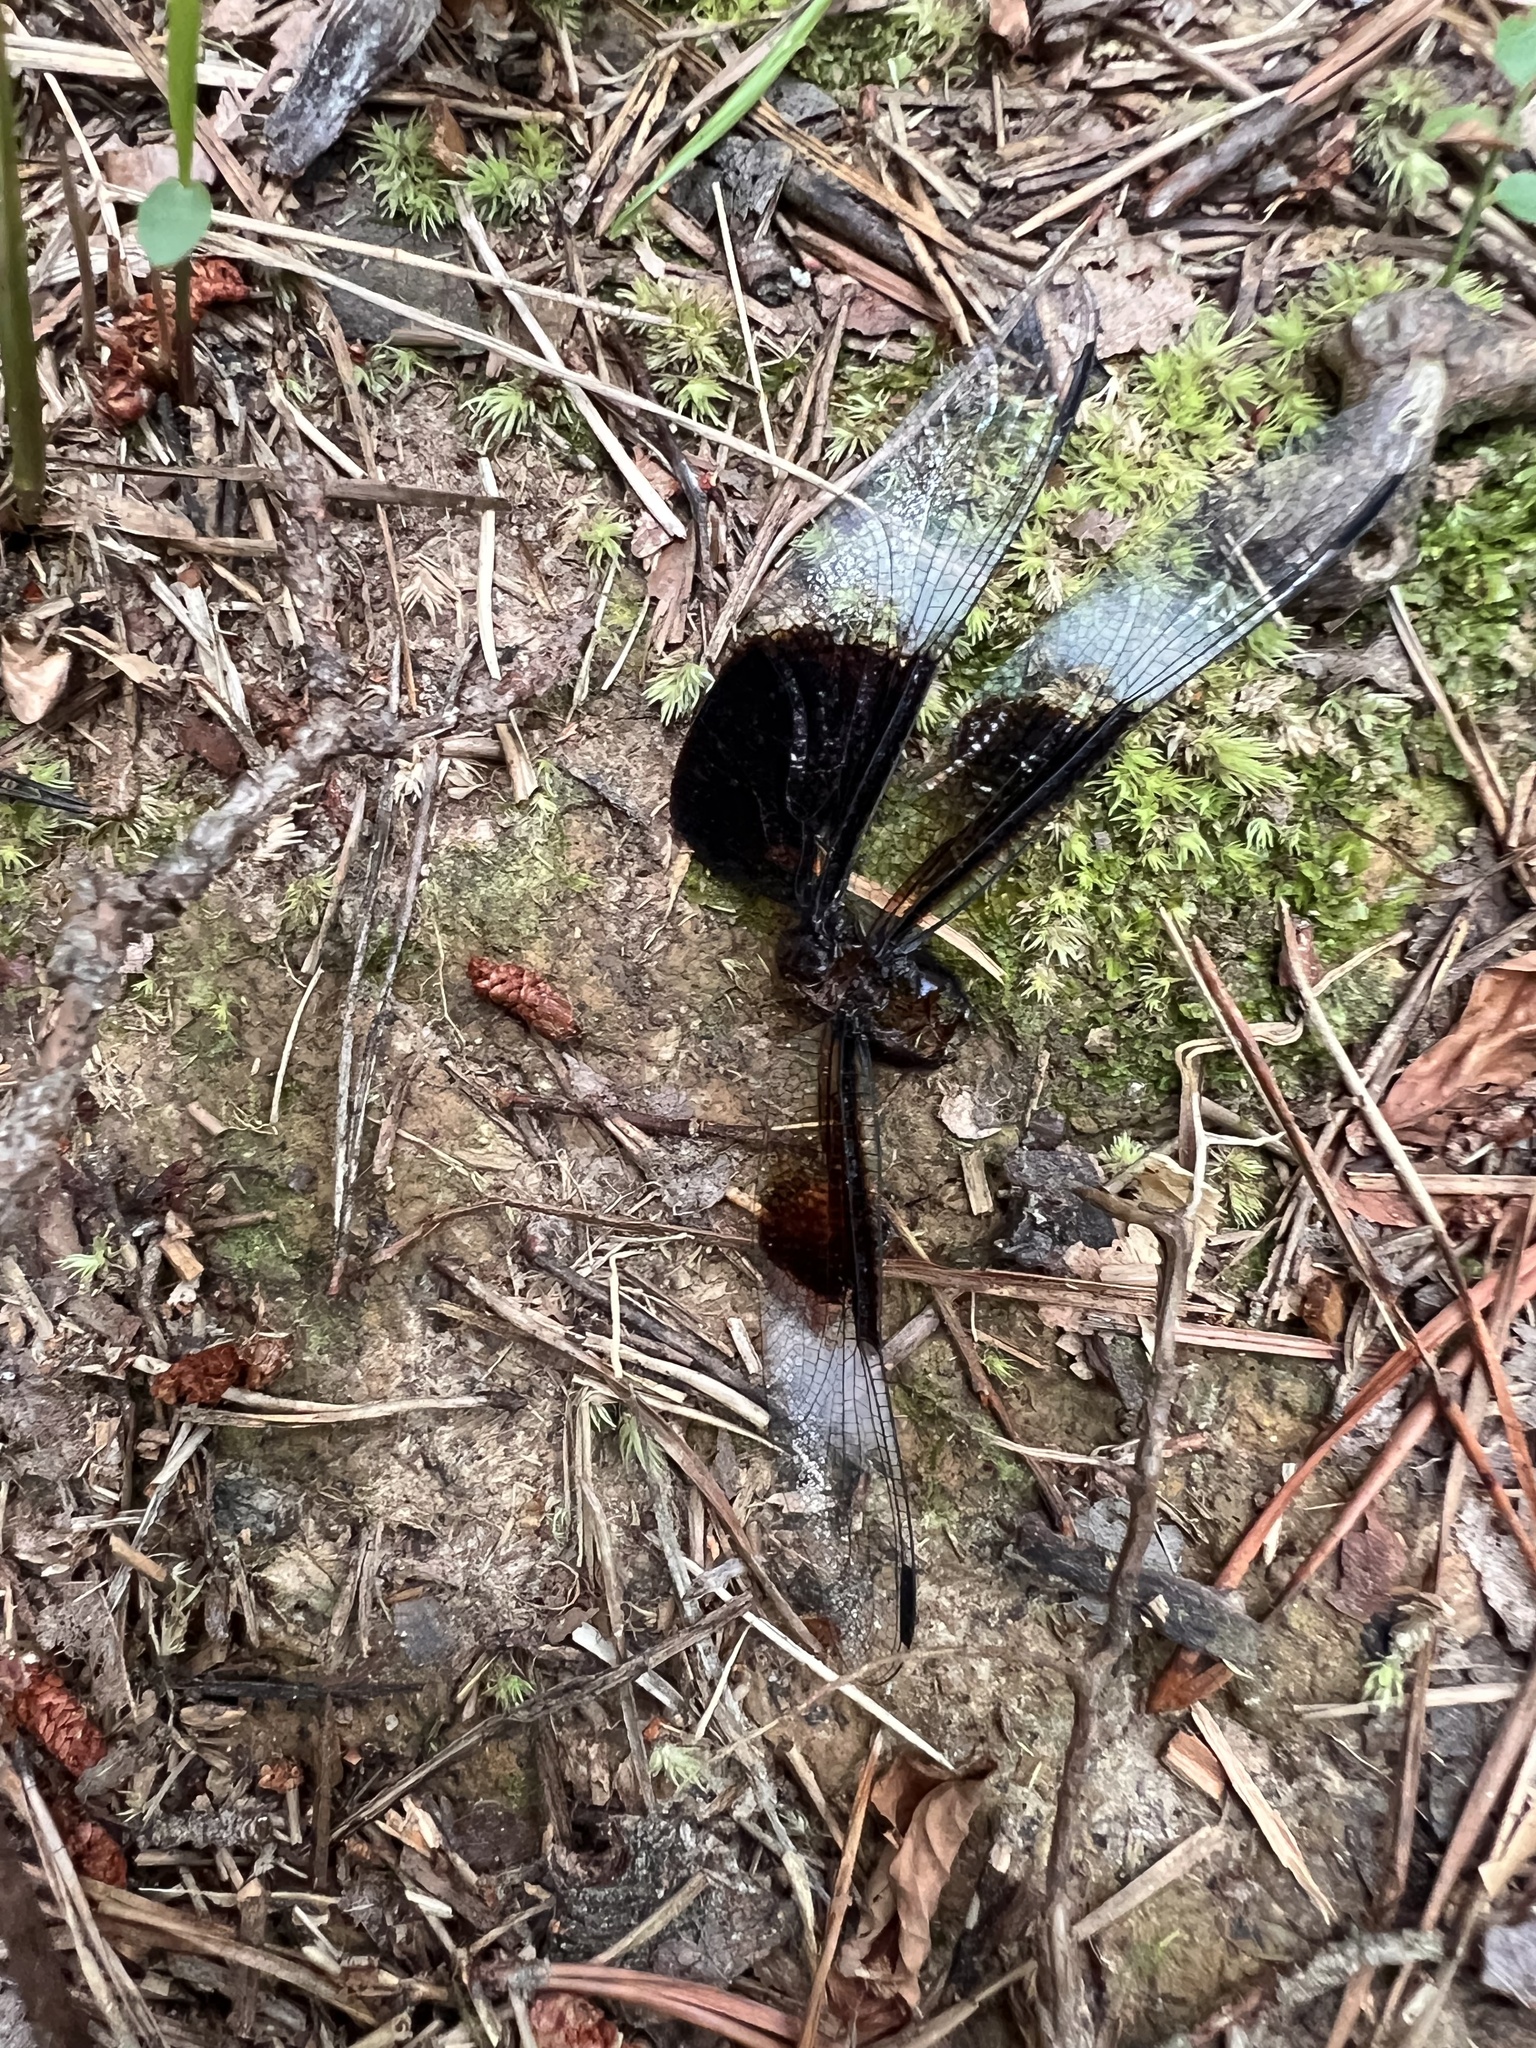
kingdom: Animalia
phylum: Arthropoda
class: Insecta
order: Odonata
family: Libellulidae
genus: Libellula
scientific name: Libellula luctuosa
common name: Widow skimmer
